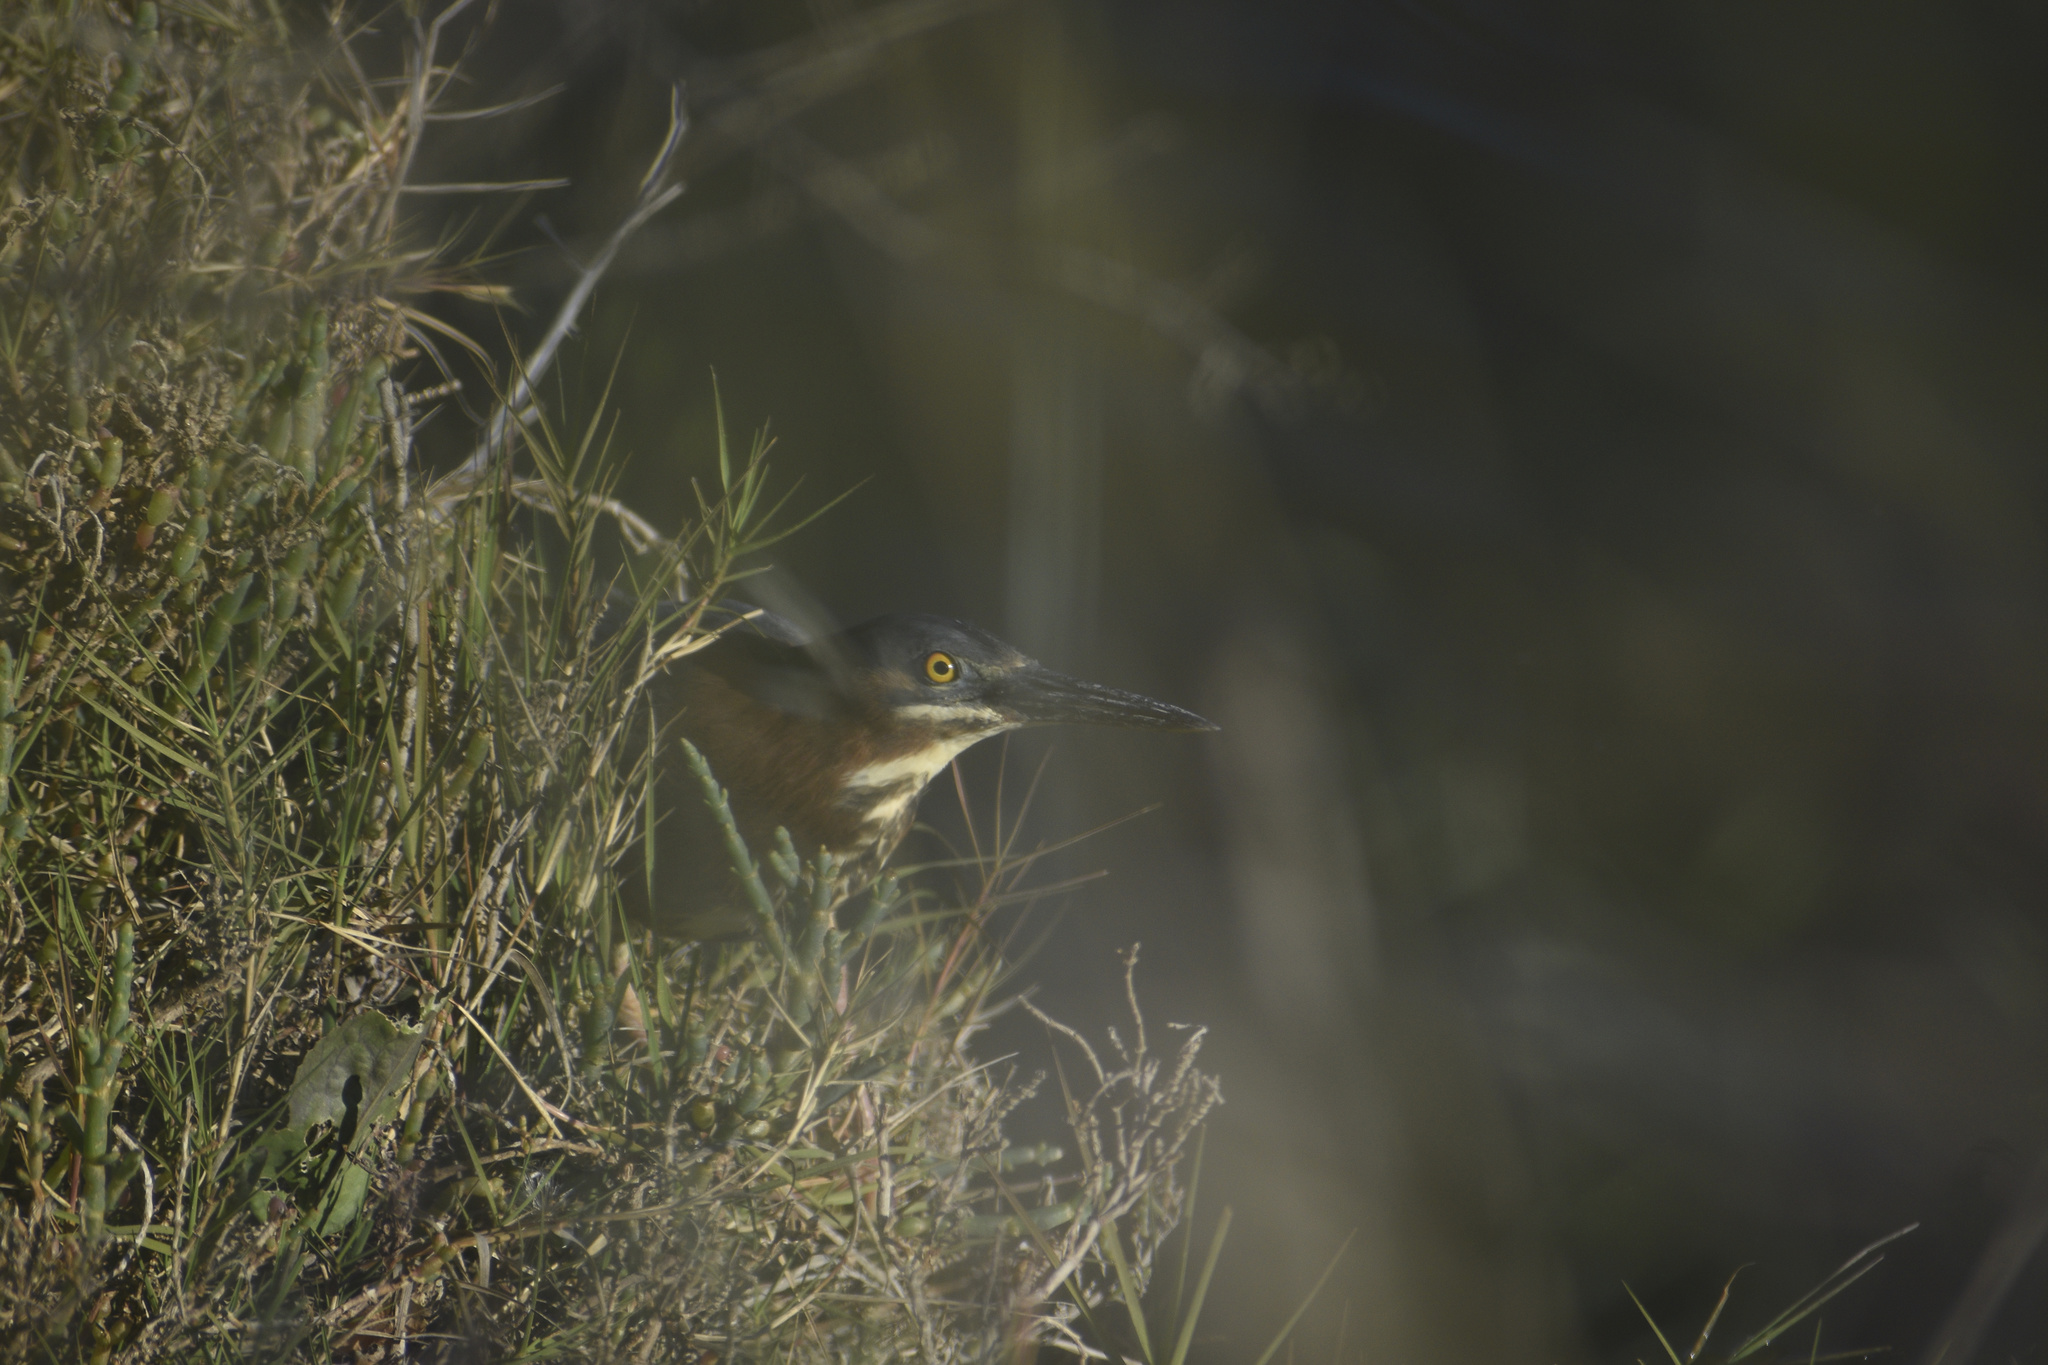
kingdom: Animalia
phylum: Chordata
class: Aves
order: Pelecaniformes
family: Ardeidae
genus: Butorides
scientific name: Butorides virescens
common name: Green heron
